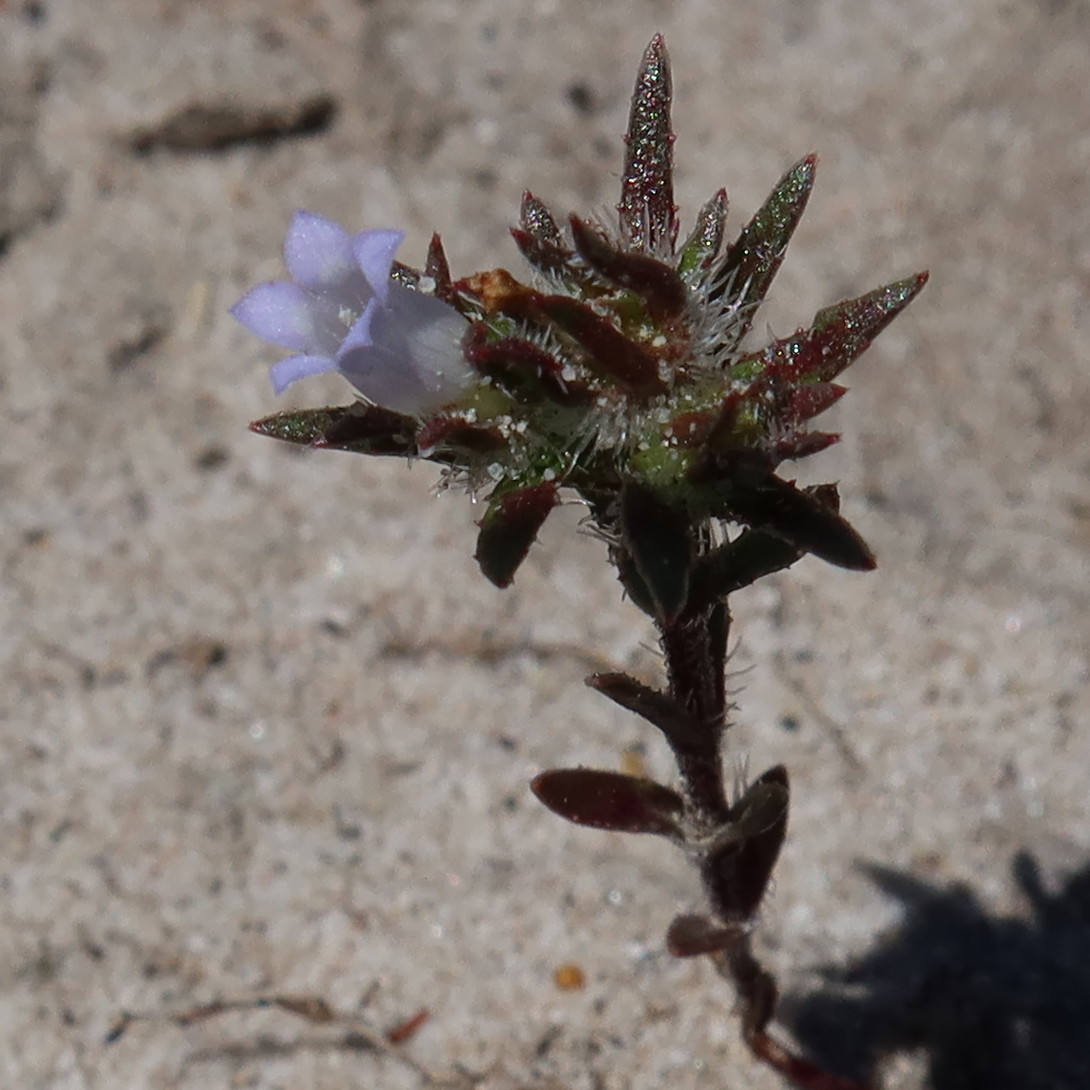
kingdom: Plantae
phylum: Tracheophyta
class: Magnoliopsida
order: Asterales
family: Campanulaceae
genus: Microcodon
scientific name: Microcodon glomeratus
